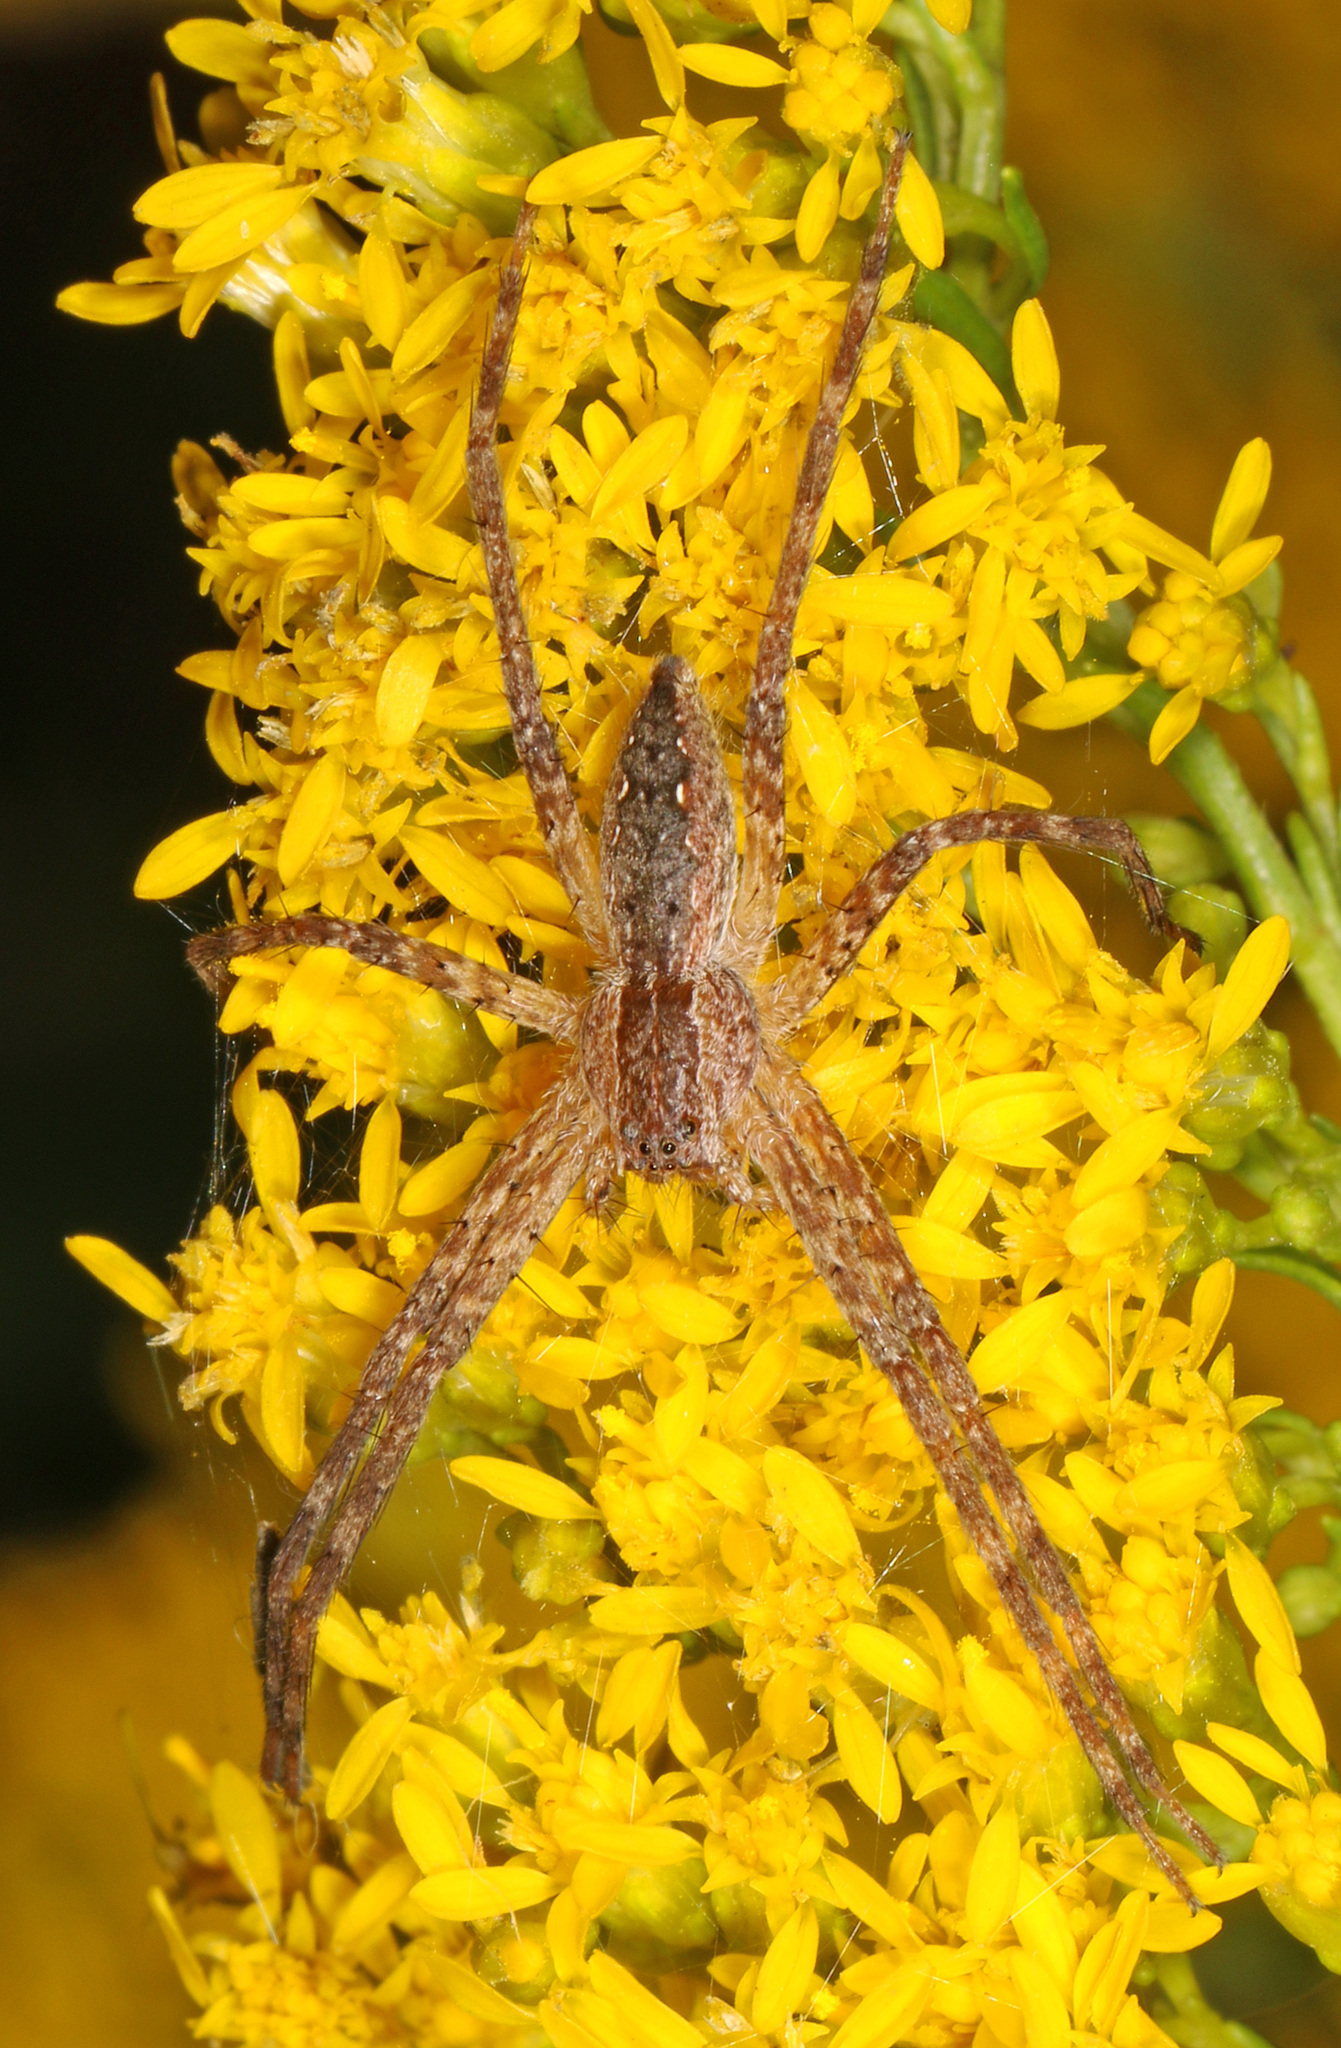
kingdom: Animalia
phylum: Arthropoda
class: Arachnida
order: Araneae
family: Pisauridae
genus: Pisaurina
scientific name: Pisaurina mira
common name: American nursery web spider
